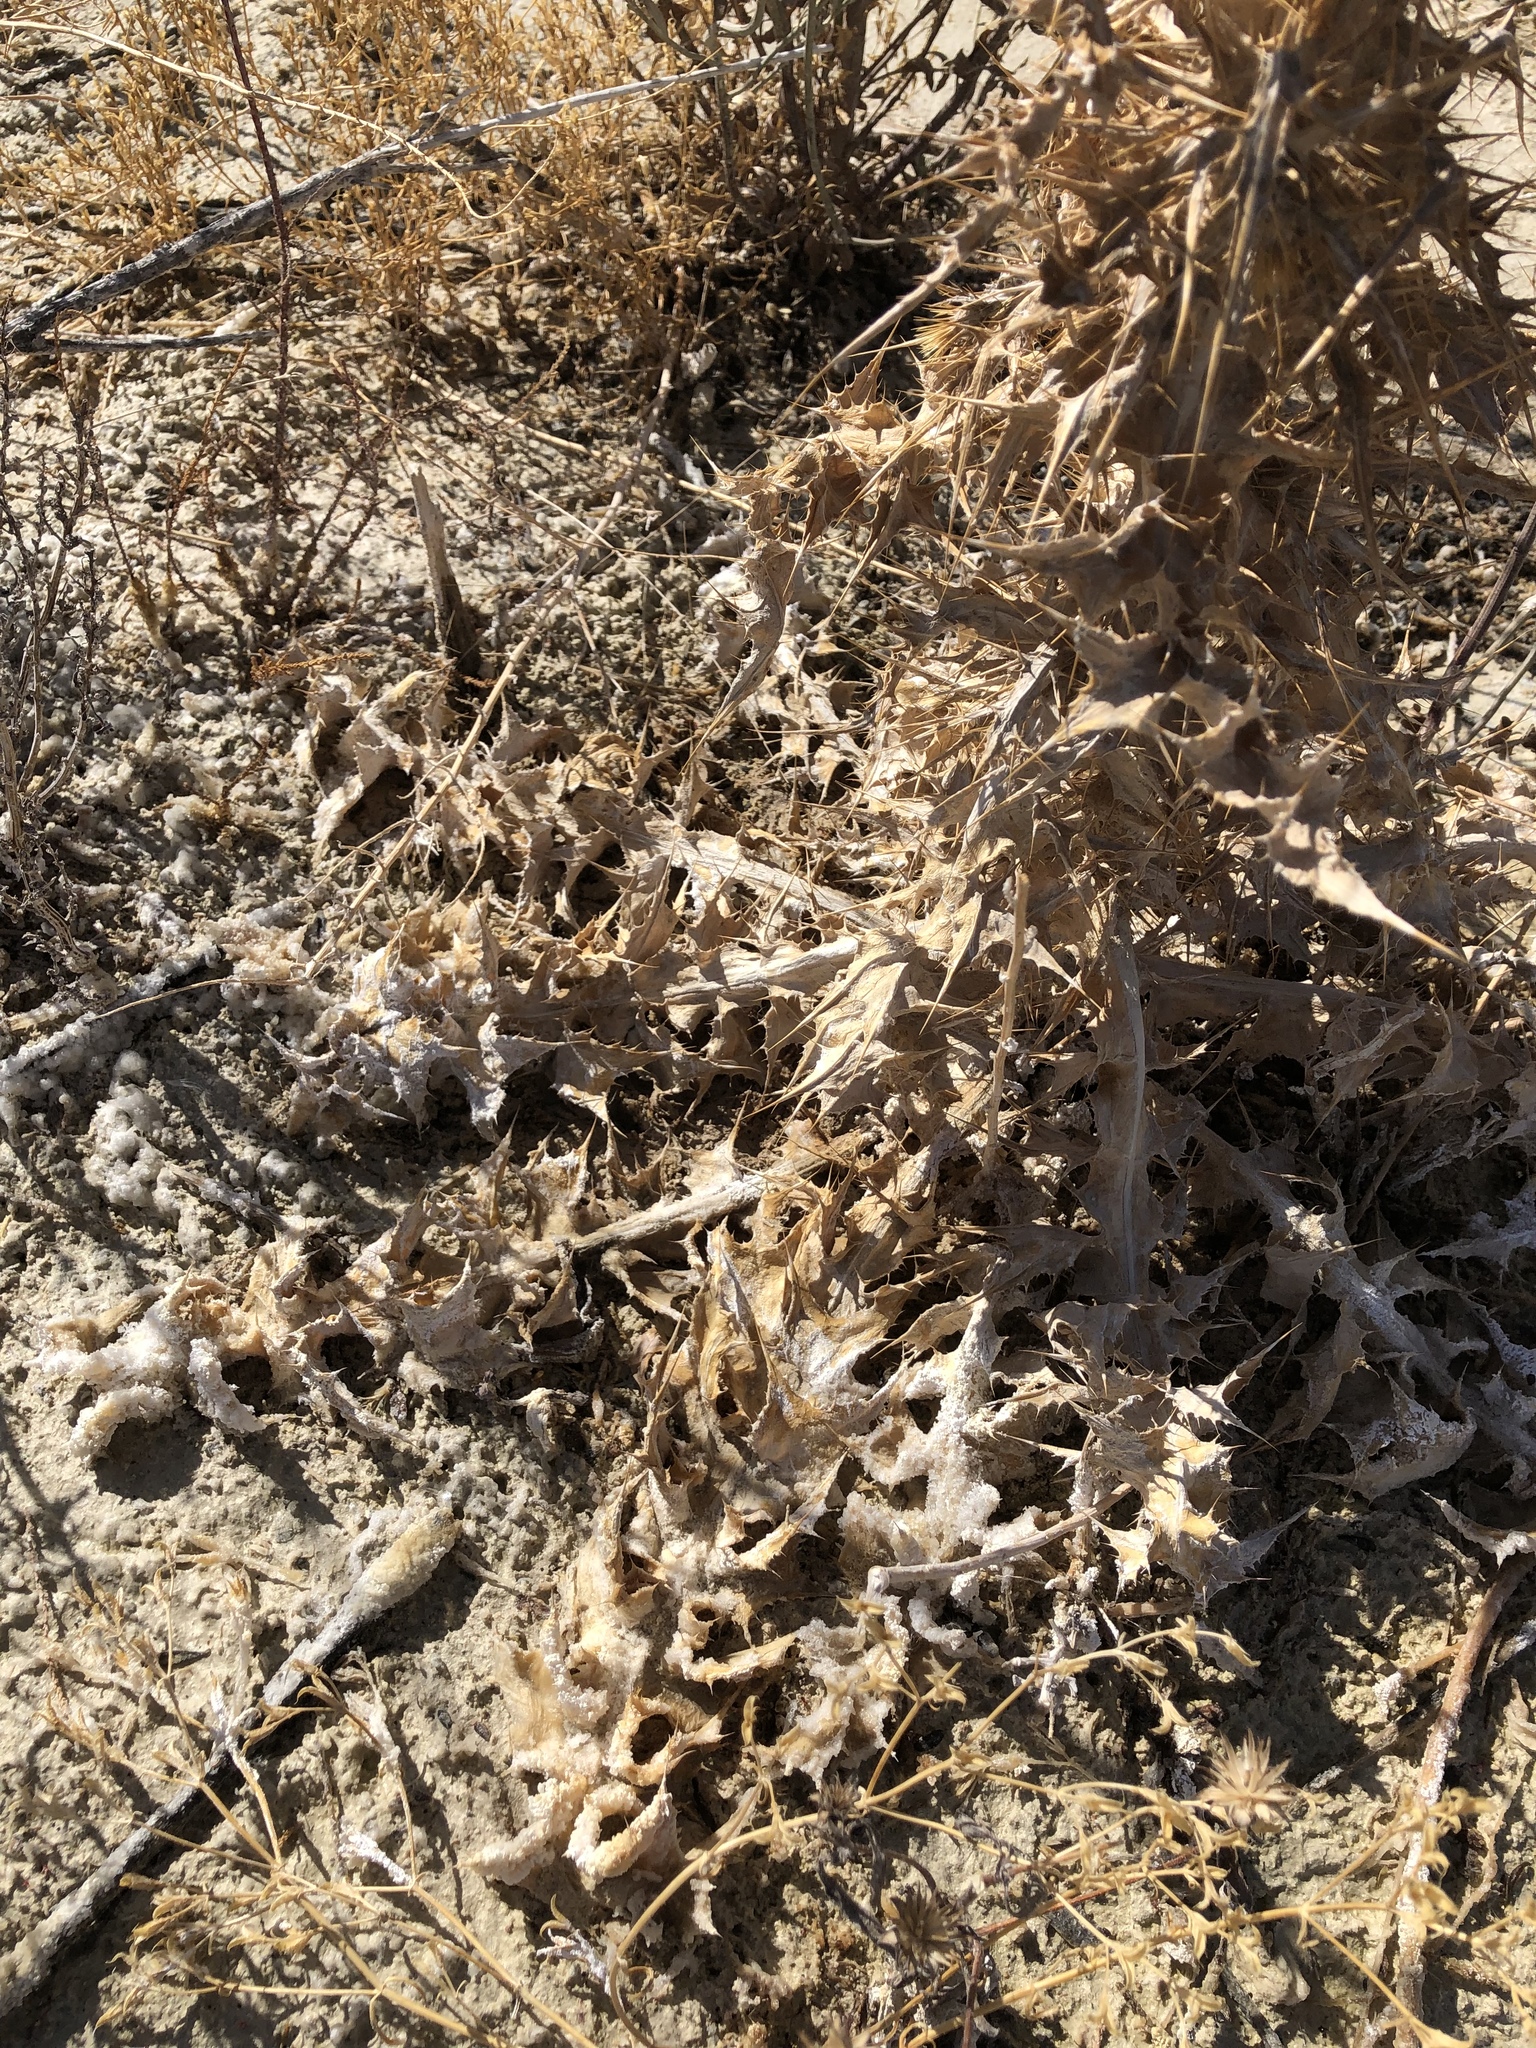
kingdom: Plantae
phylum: Tracheophyta
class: Magnoliopsida
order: Asterales
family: Asteraceae
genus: Cirsium
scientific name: Cirsium mohavense
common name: Mojave thistle
